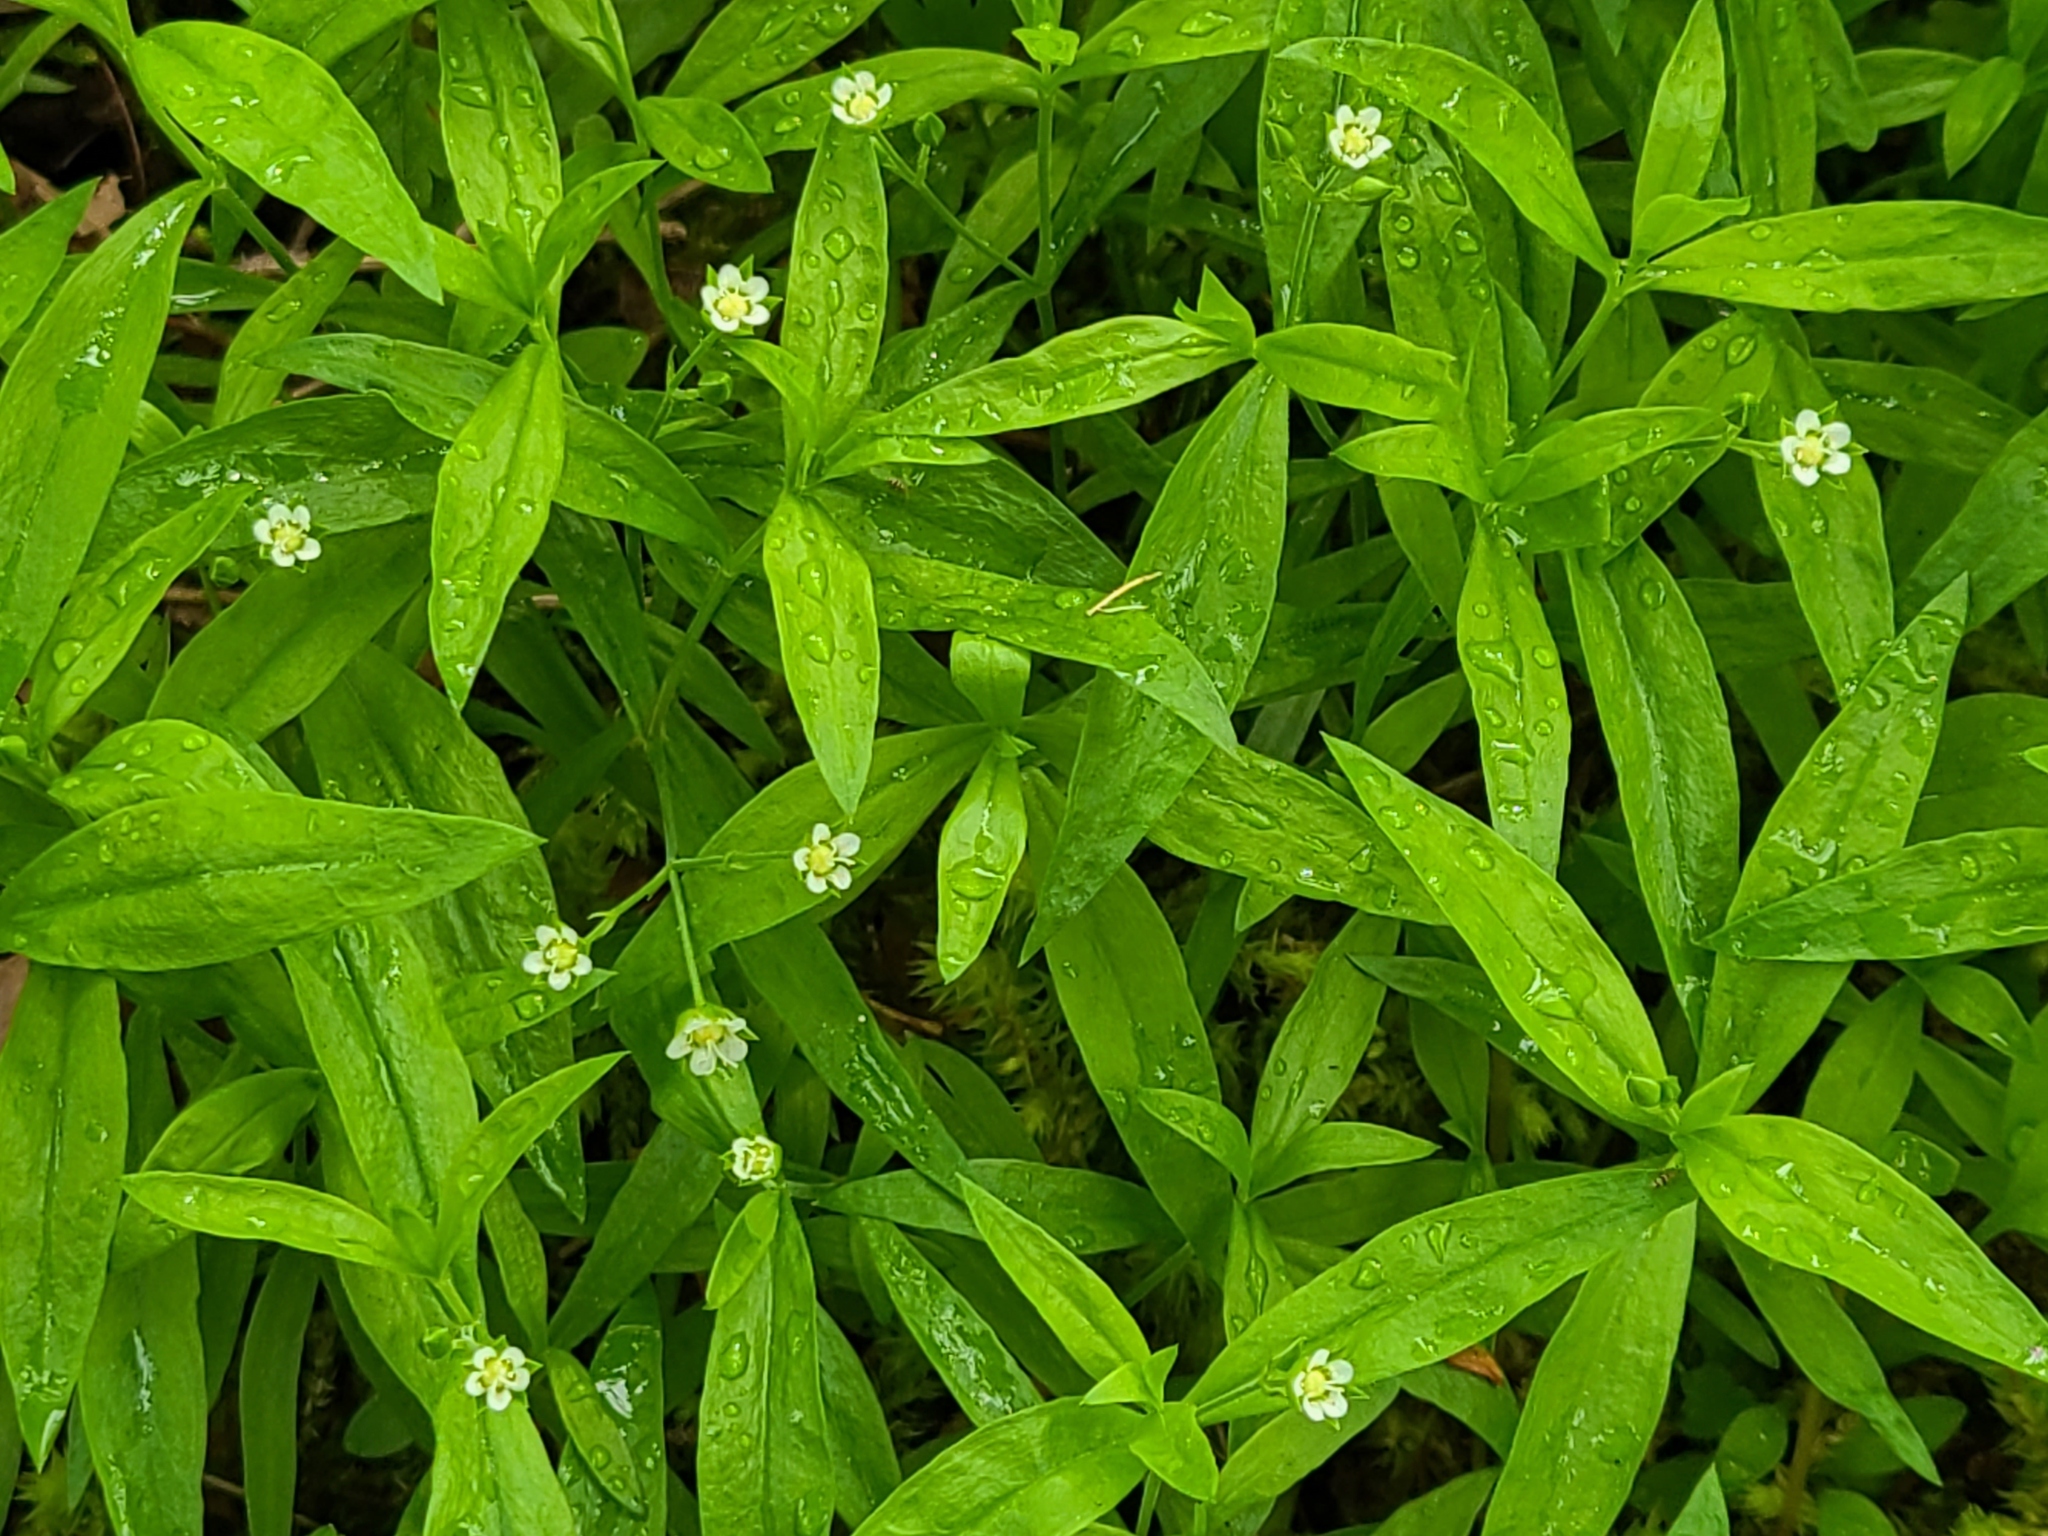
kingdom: Plantae
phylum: Tracheophyta
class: Magnoliopsida
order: Caryophyllales
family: Caryophyllaceae
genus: Moehringia
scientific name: Moehringia macrophylla
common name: Big-leaf sandwort
